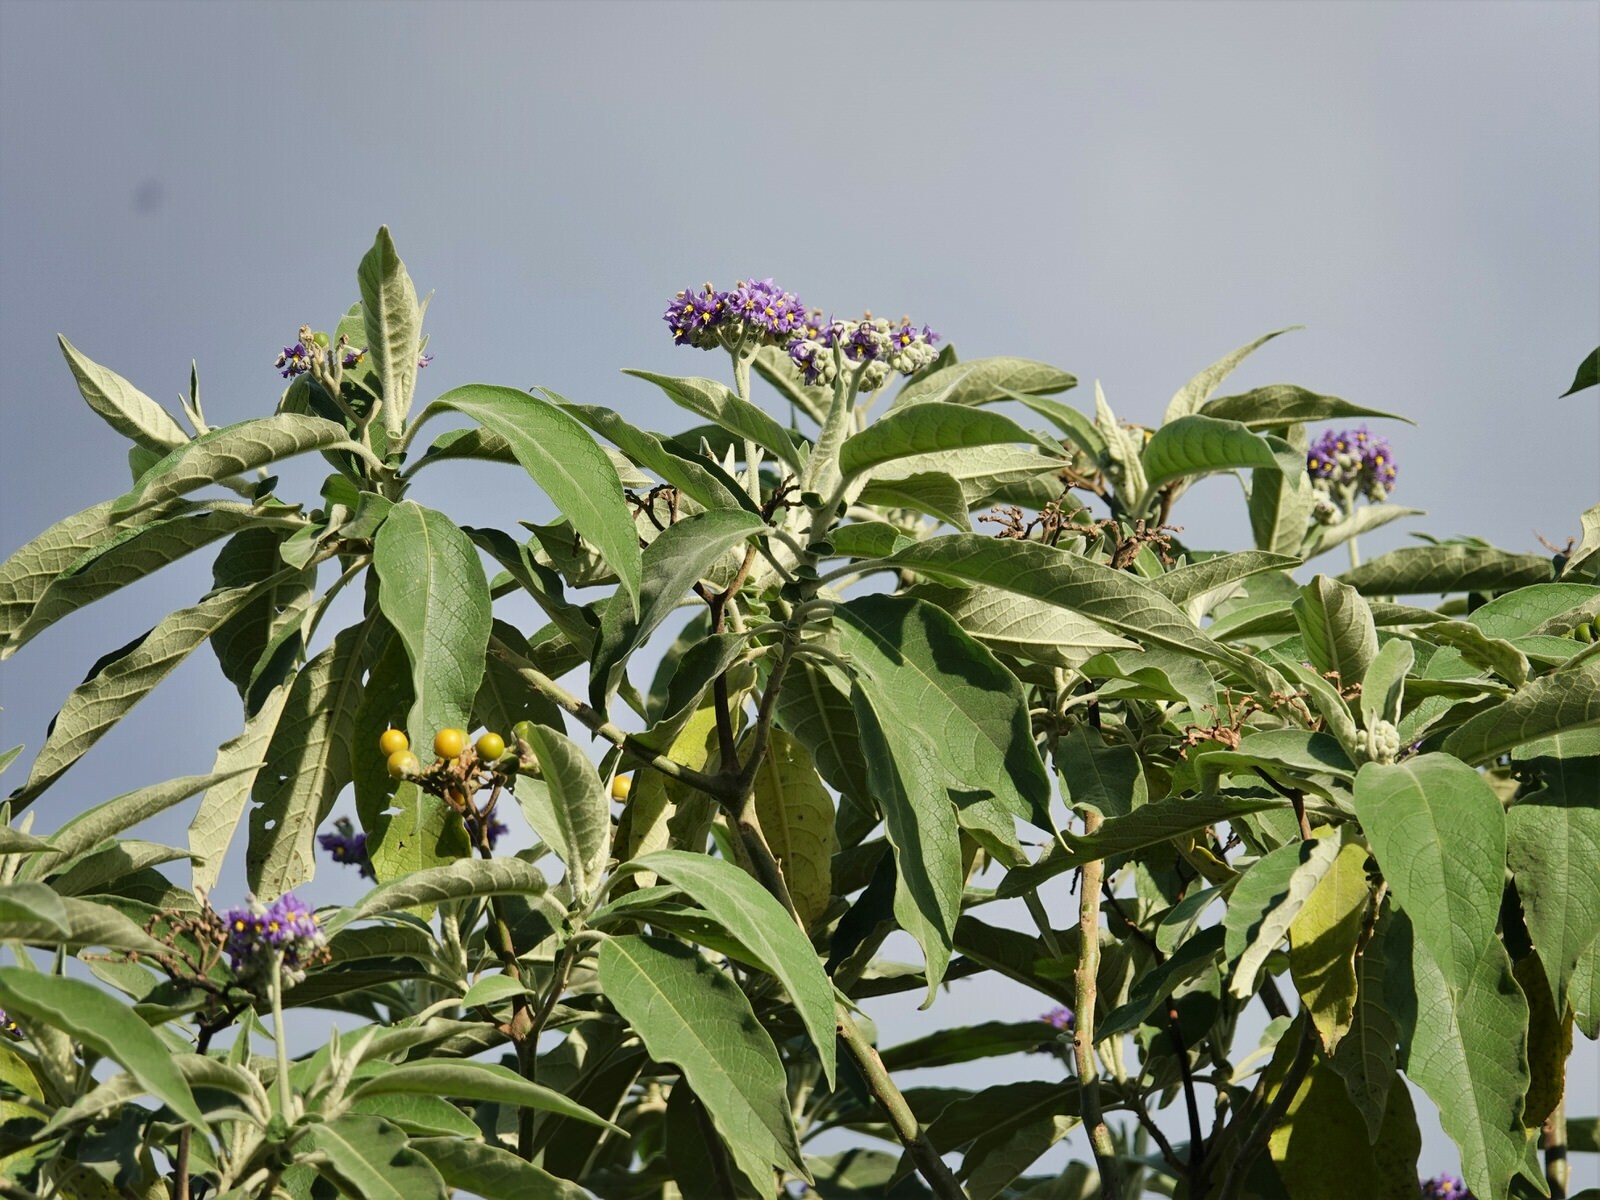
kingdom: Plantae
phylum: Tracheophyta
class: Magnoliopsida
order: Solanales
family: Solanaceae
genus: Solanum
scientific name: Solanum mauritianum
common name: Earleaf nightshade
